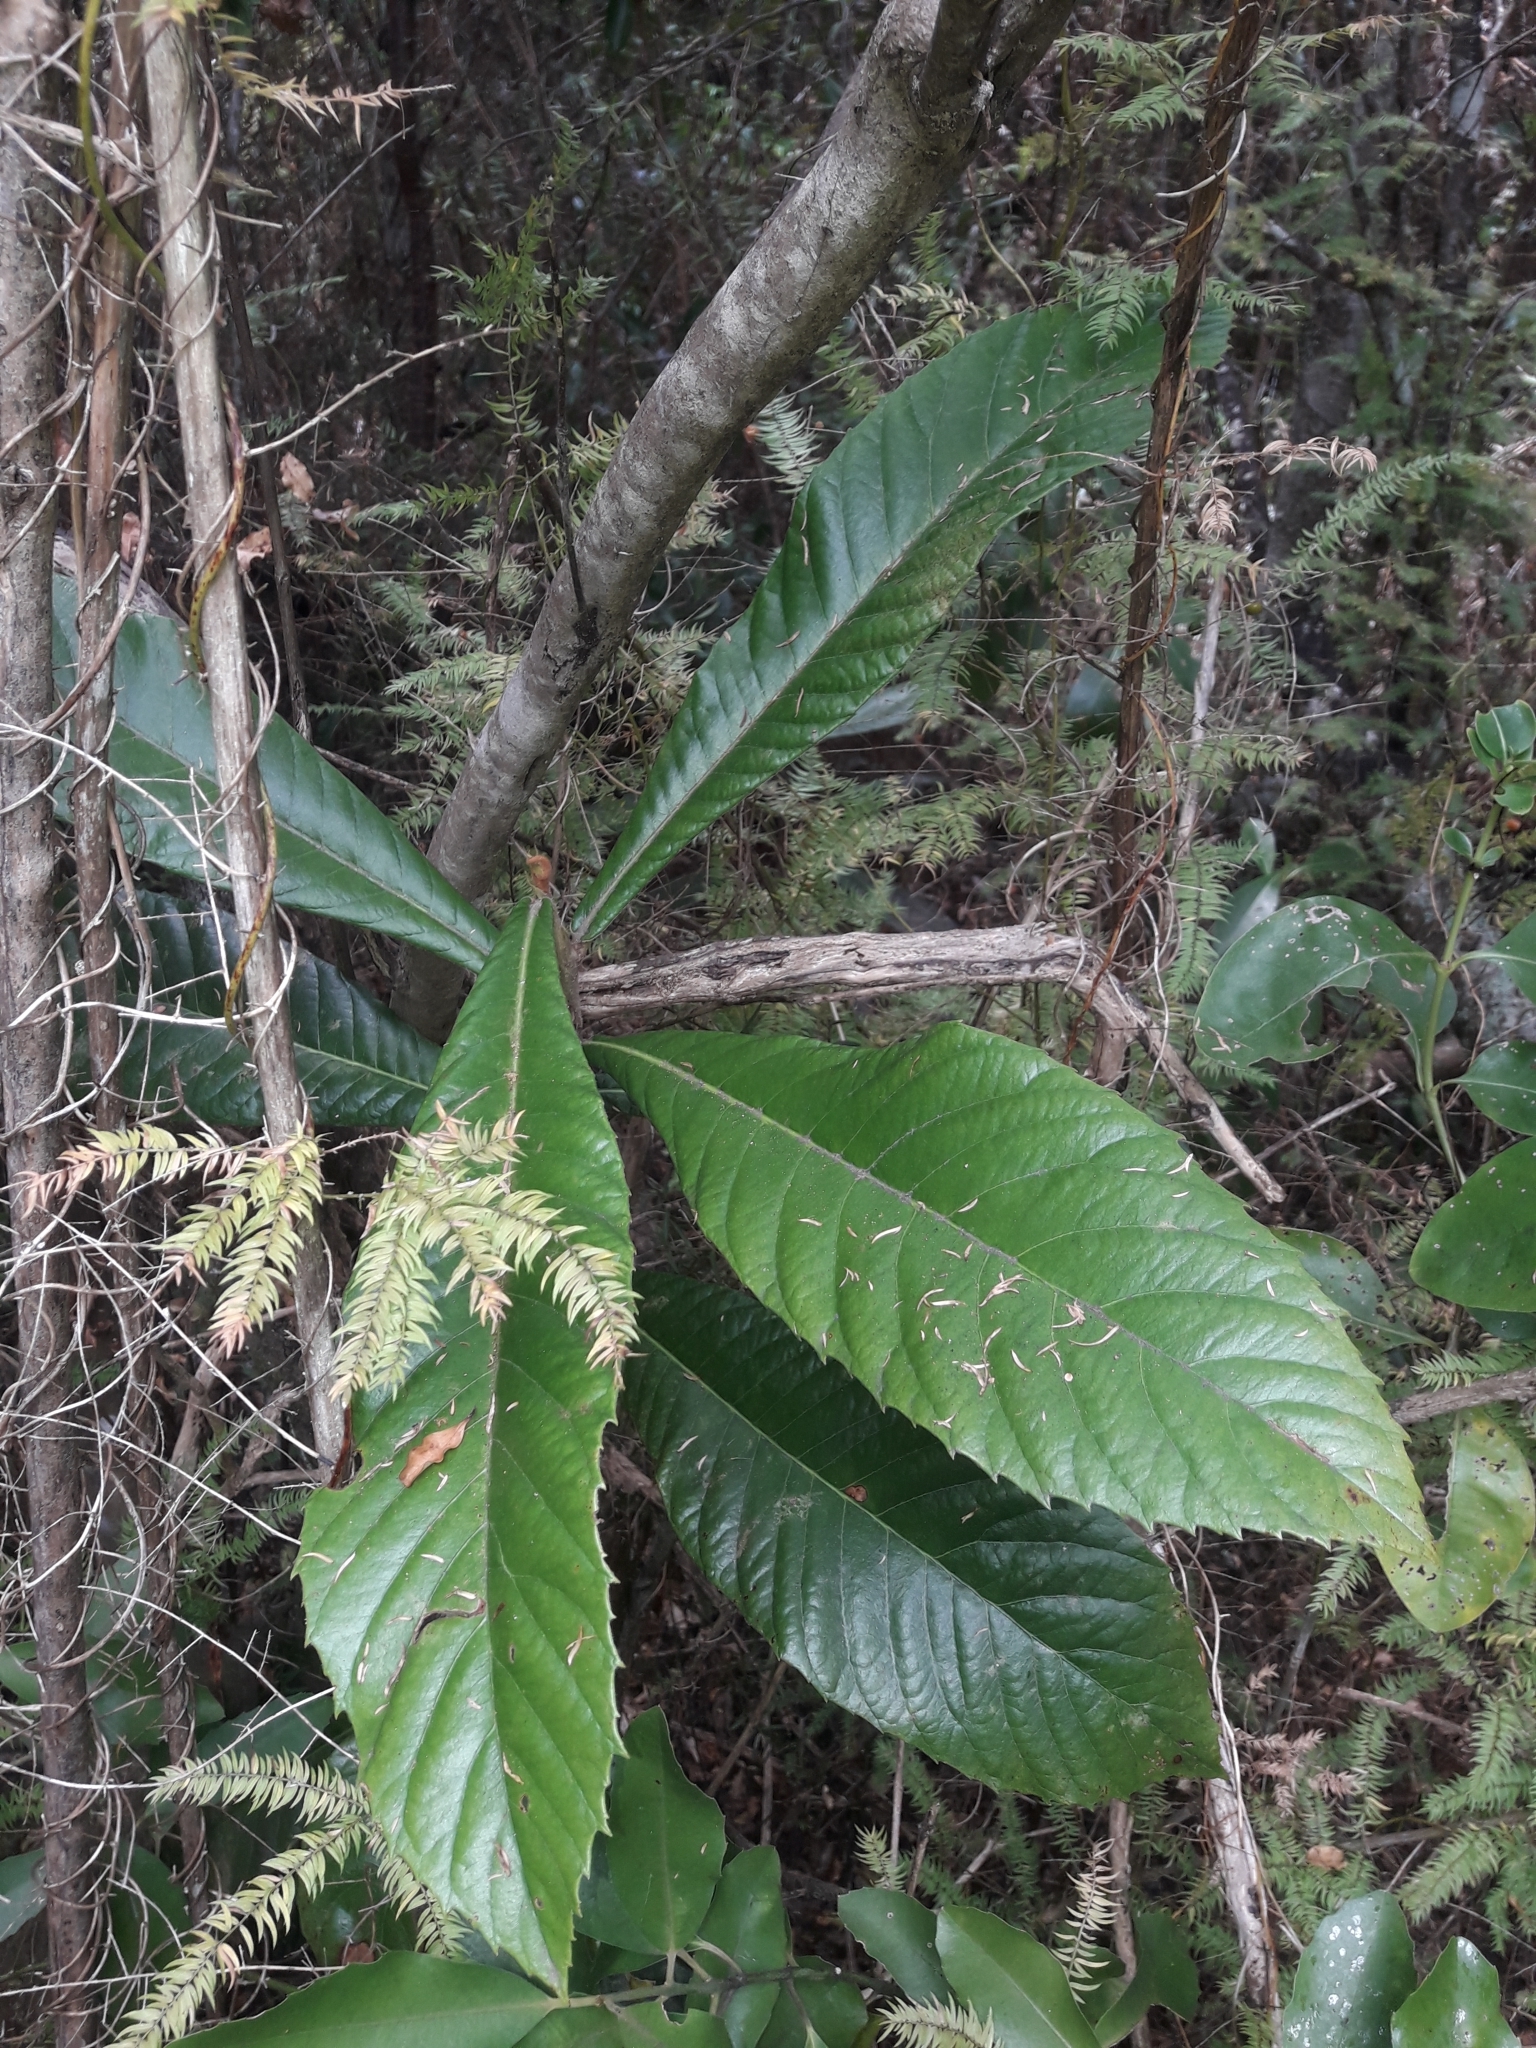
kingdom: Plantae
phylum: Tracheophyta
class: Magnoliopsida
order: Rosales
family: Rosaceae
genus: Rhaphiolepis
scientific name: Rhaphiolepis bibas
